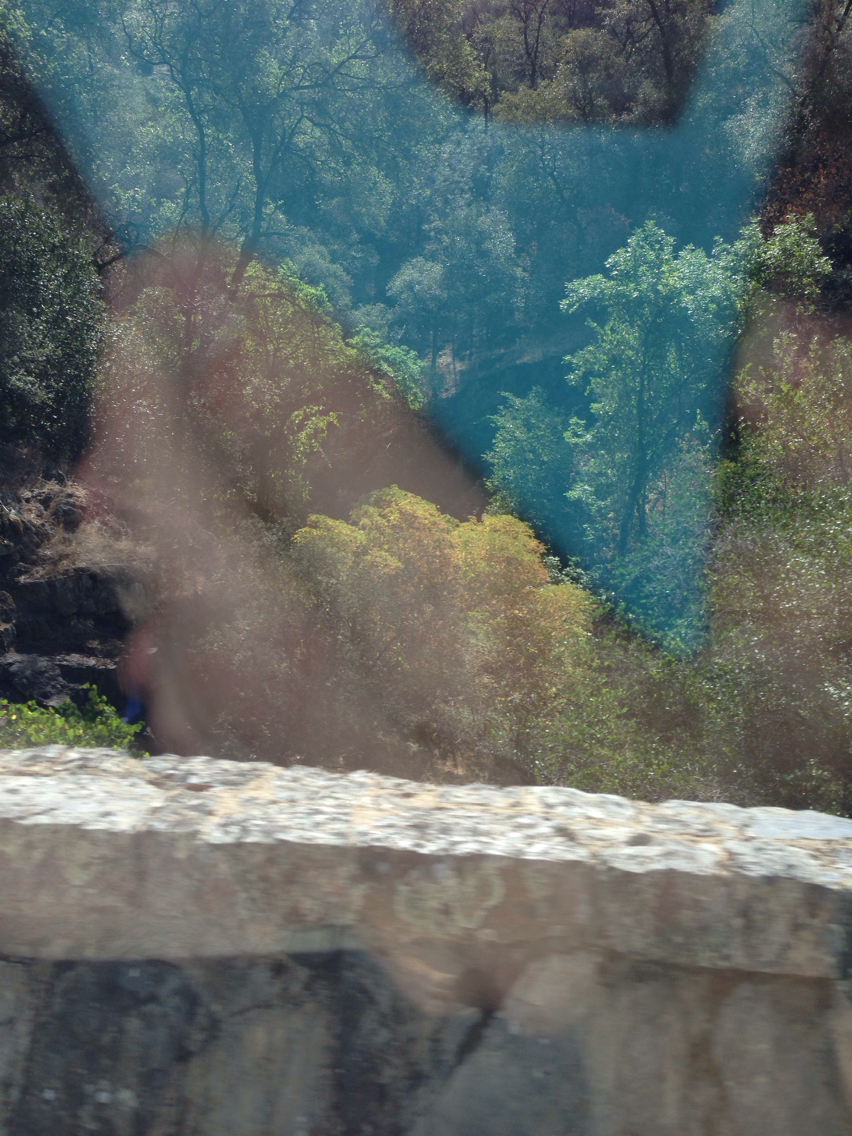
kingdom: Plantae
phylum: Tracheophyta
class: Magnoliopsida
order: Sapindales
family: Sapindaceae
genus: Aesculus
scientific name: Aesculus californica
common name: California buckeye
